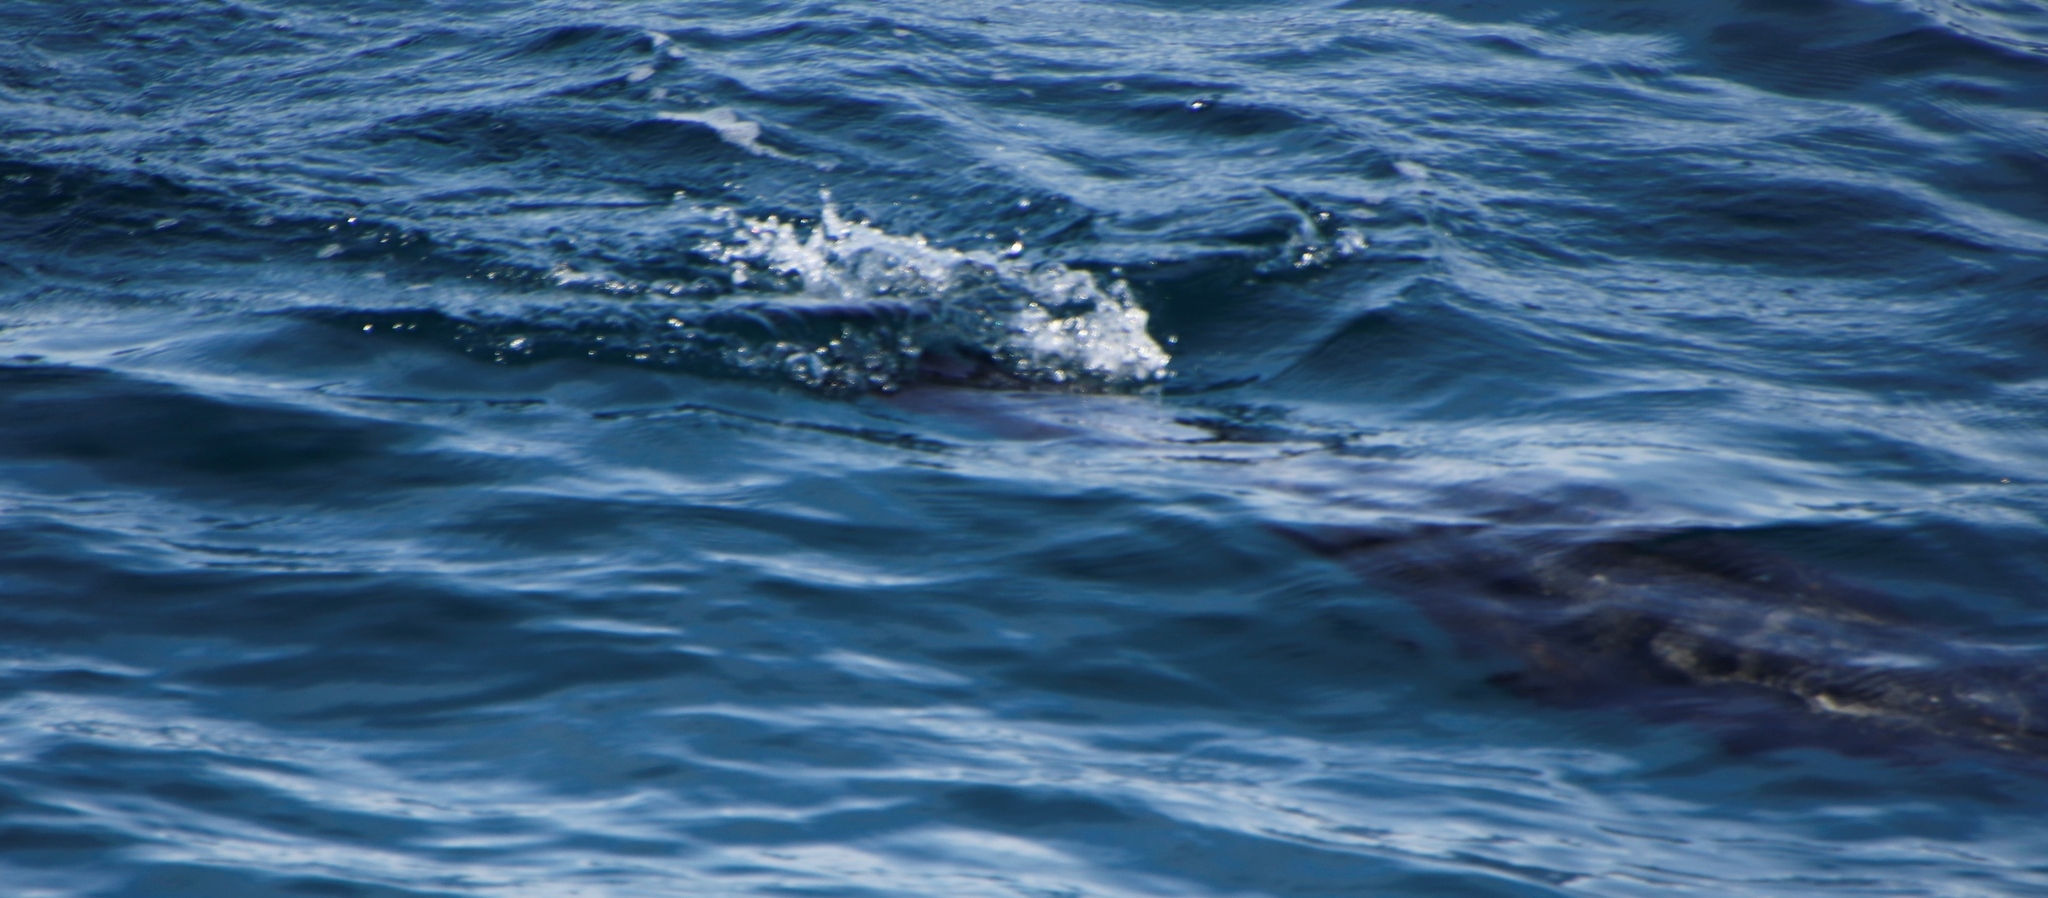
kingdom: Animalia
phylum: Chordata
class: Mammalia
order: Carnivora
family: Otariidae
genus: Arctocephalus
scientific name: Arctocephalus pusillus
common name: Brown fur seal
